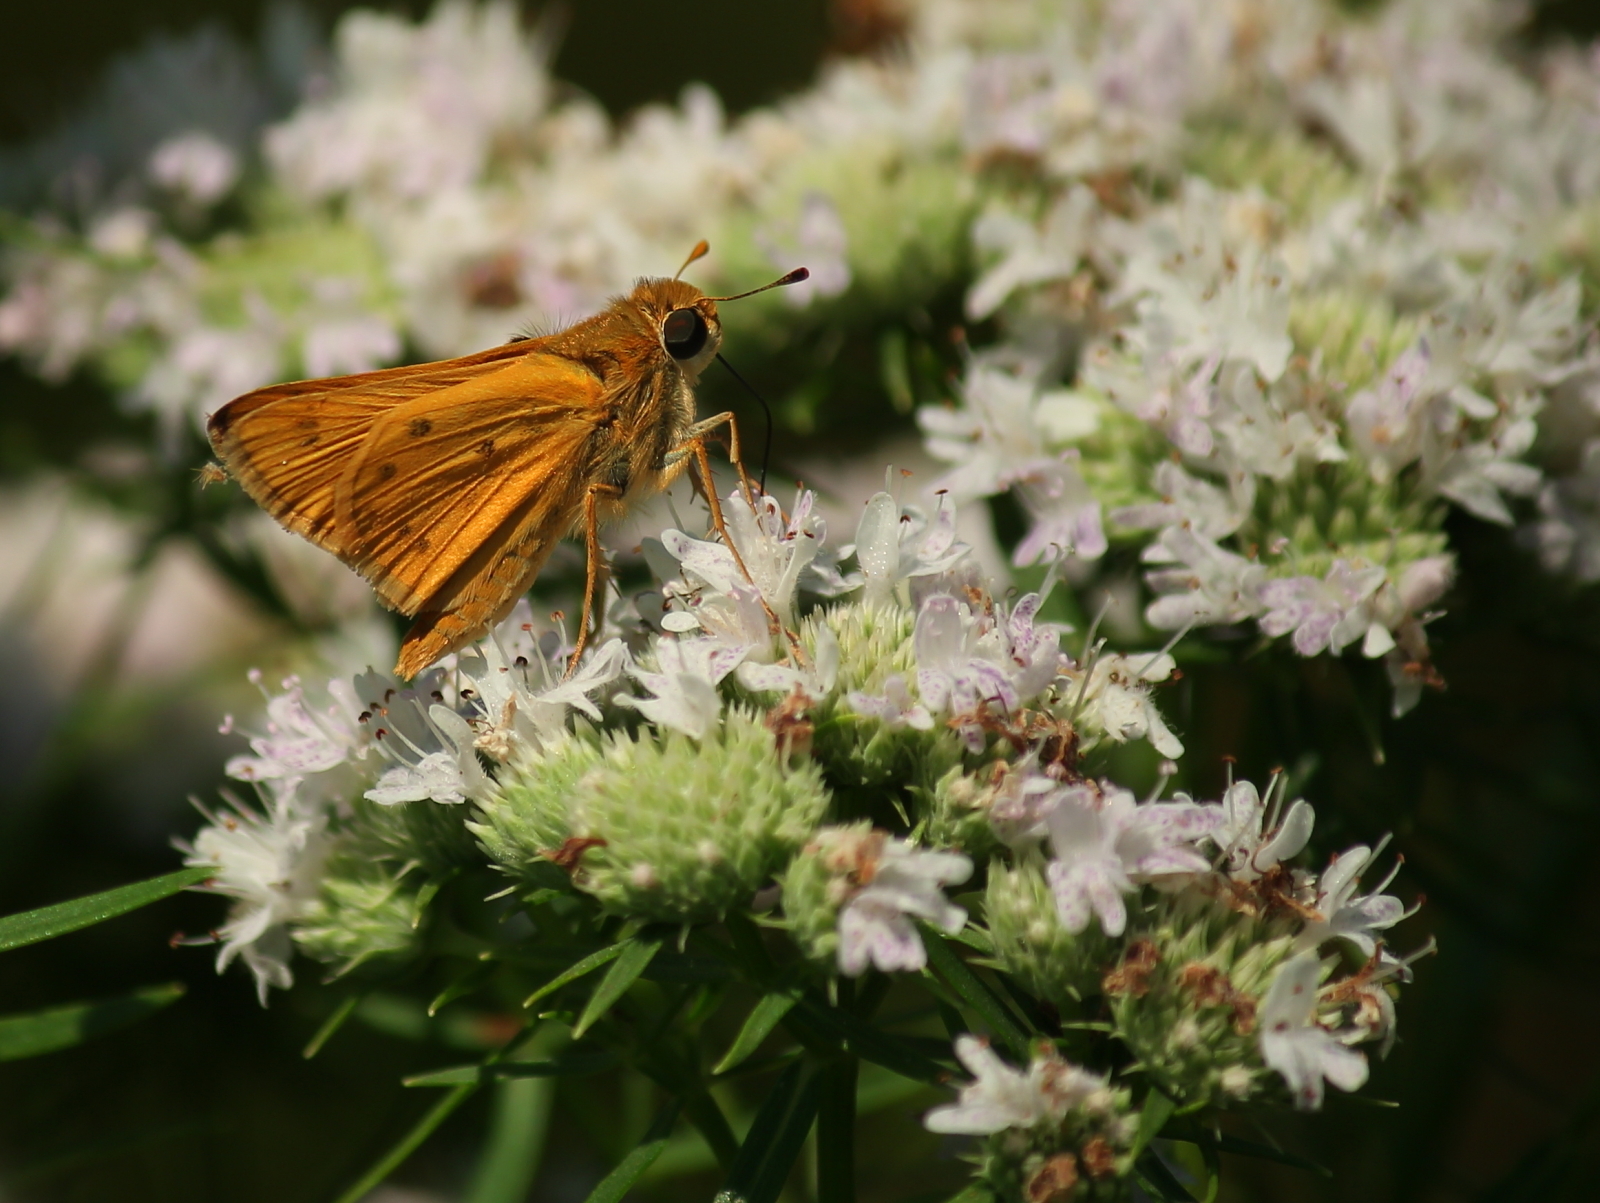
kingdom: Animalia
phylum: Arthropoda
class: Insecta
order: Lepidoptera
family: Hesperiidae
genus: Hylephila
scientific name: Hylephila phyleus
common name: Fiery skipper
